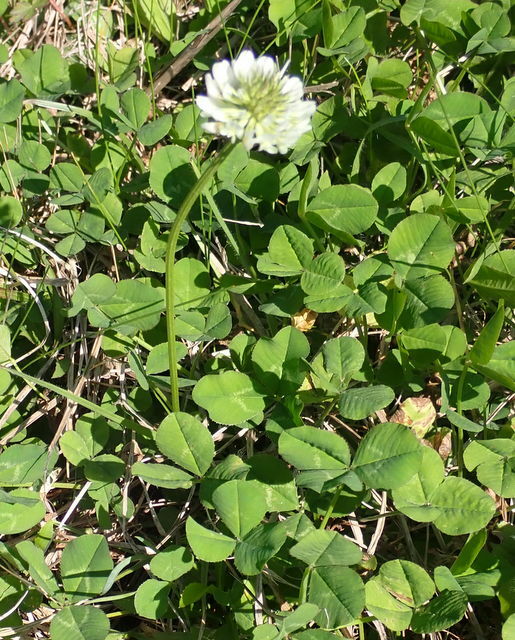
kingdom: Plantae
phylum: Tracheophyta
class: Magnoliopsida
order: Fabales
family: Fabaceae
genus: Trifolium
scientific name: Trifolium repens
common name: White clover
